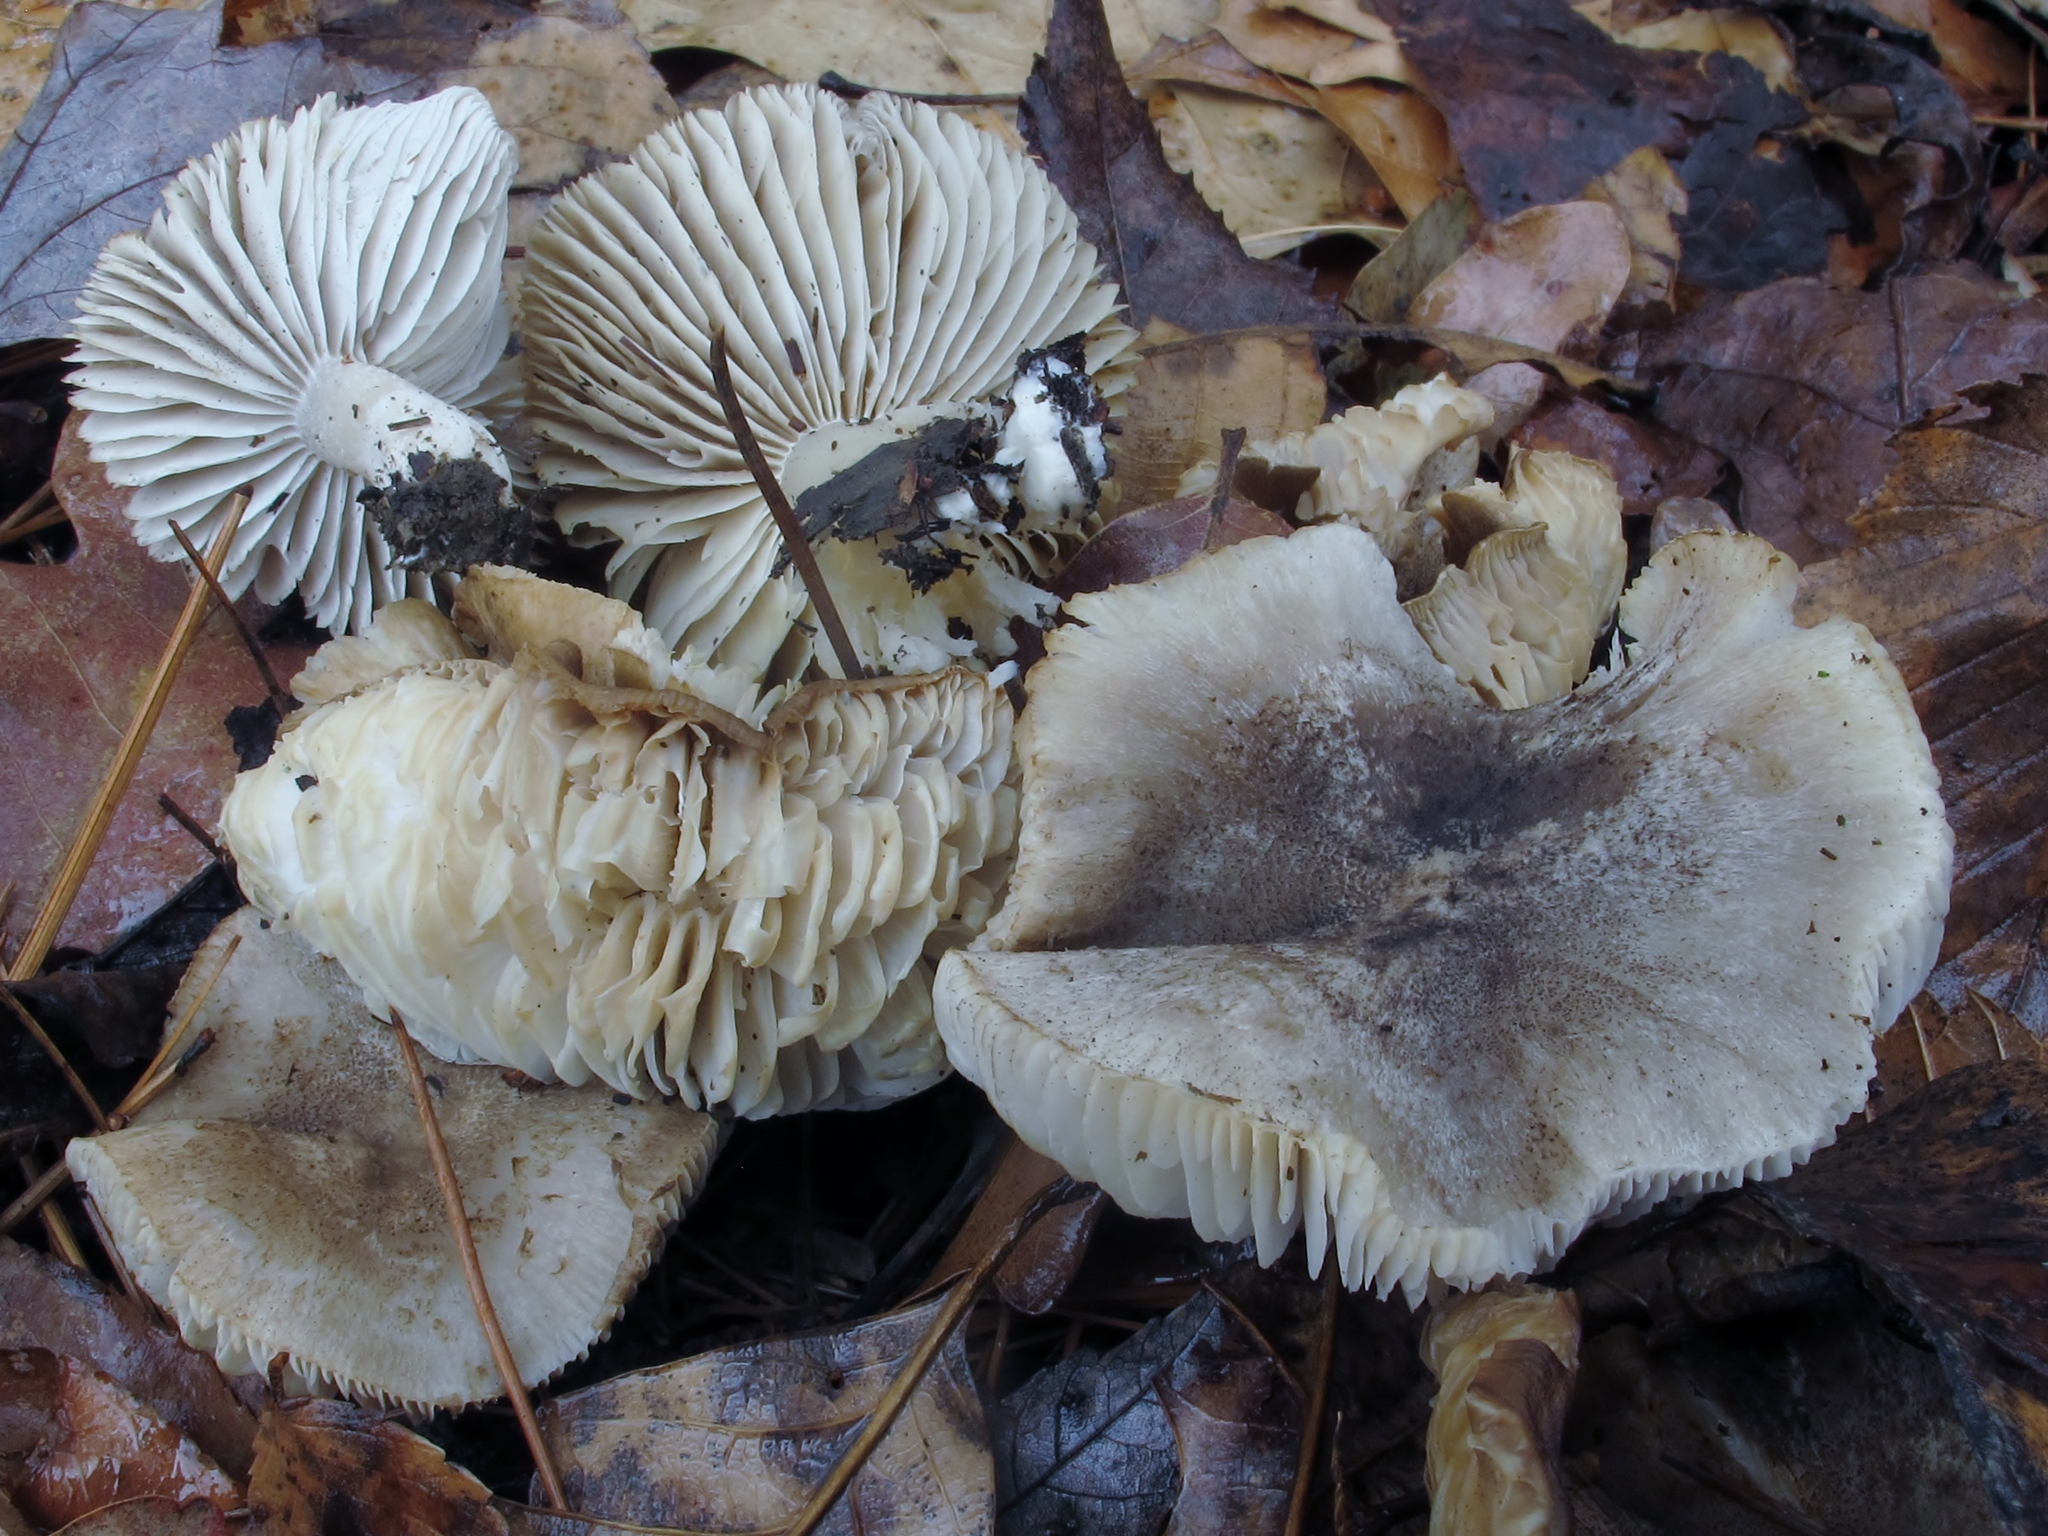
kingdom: Fungi
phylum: Basidiomycota
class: Agaricomycetes
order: Agaricales
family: Tricholomataceae
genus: Tricholoma
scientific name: Tricholoma terreum
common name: Grey knight
